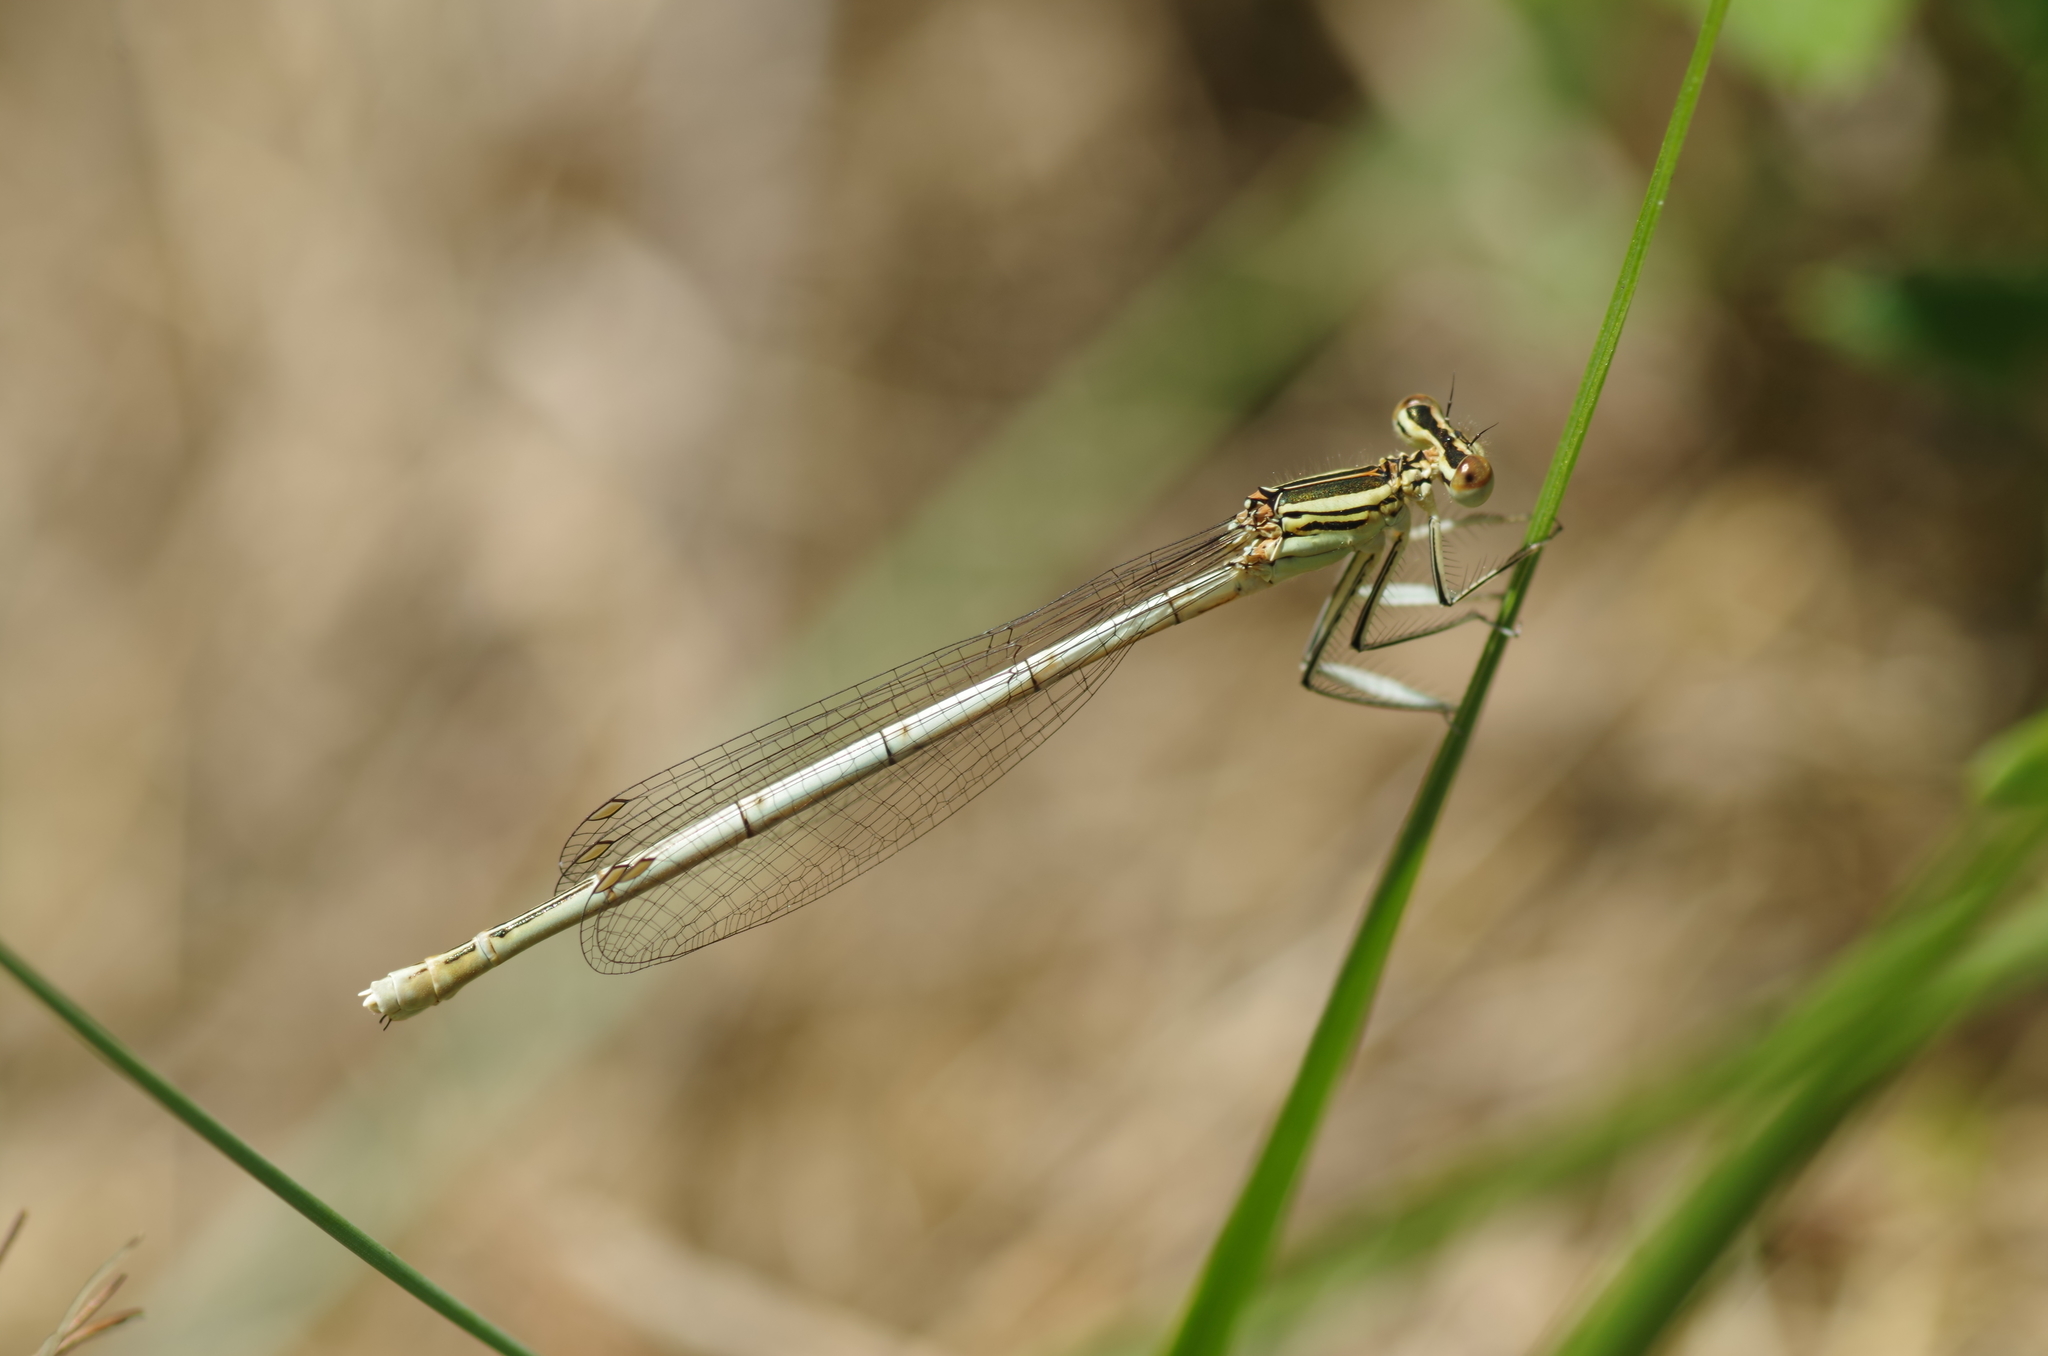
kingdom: Animalia
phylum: Arthropoda
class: Insecta
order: Odonata
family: Platycnemididae
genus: Platycnemis
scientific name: Platycnemis pennipes
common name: White-legged damselfly
